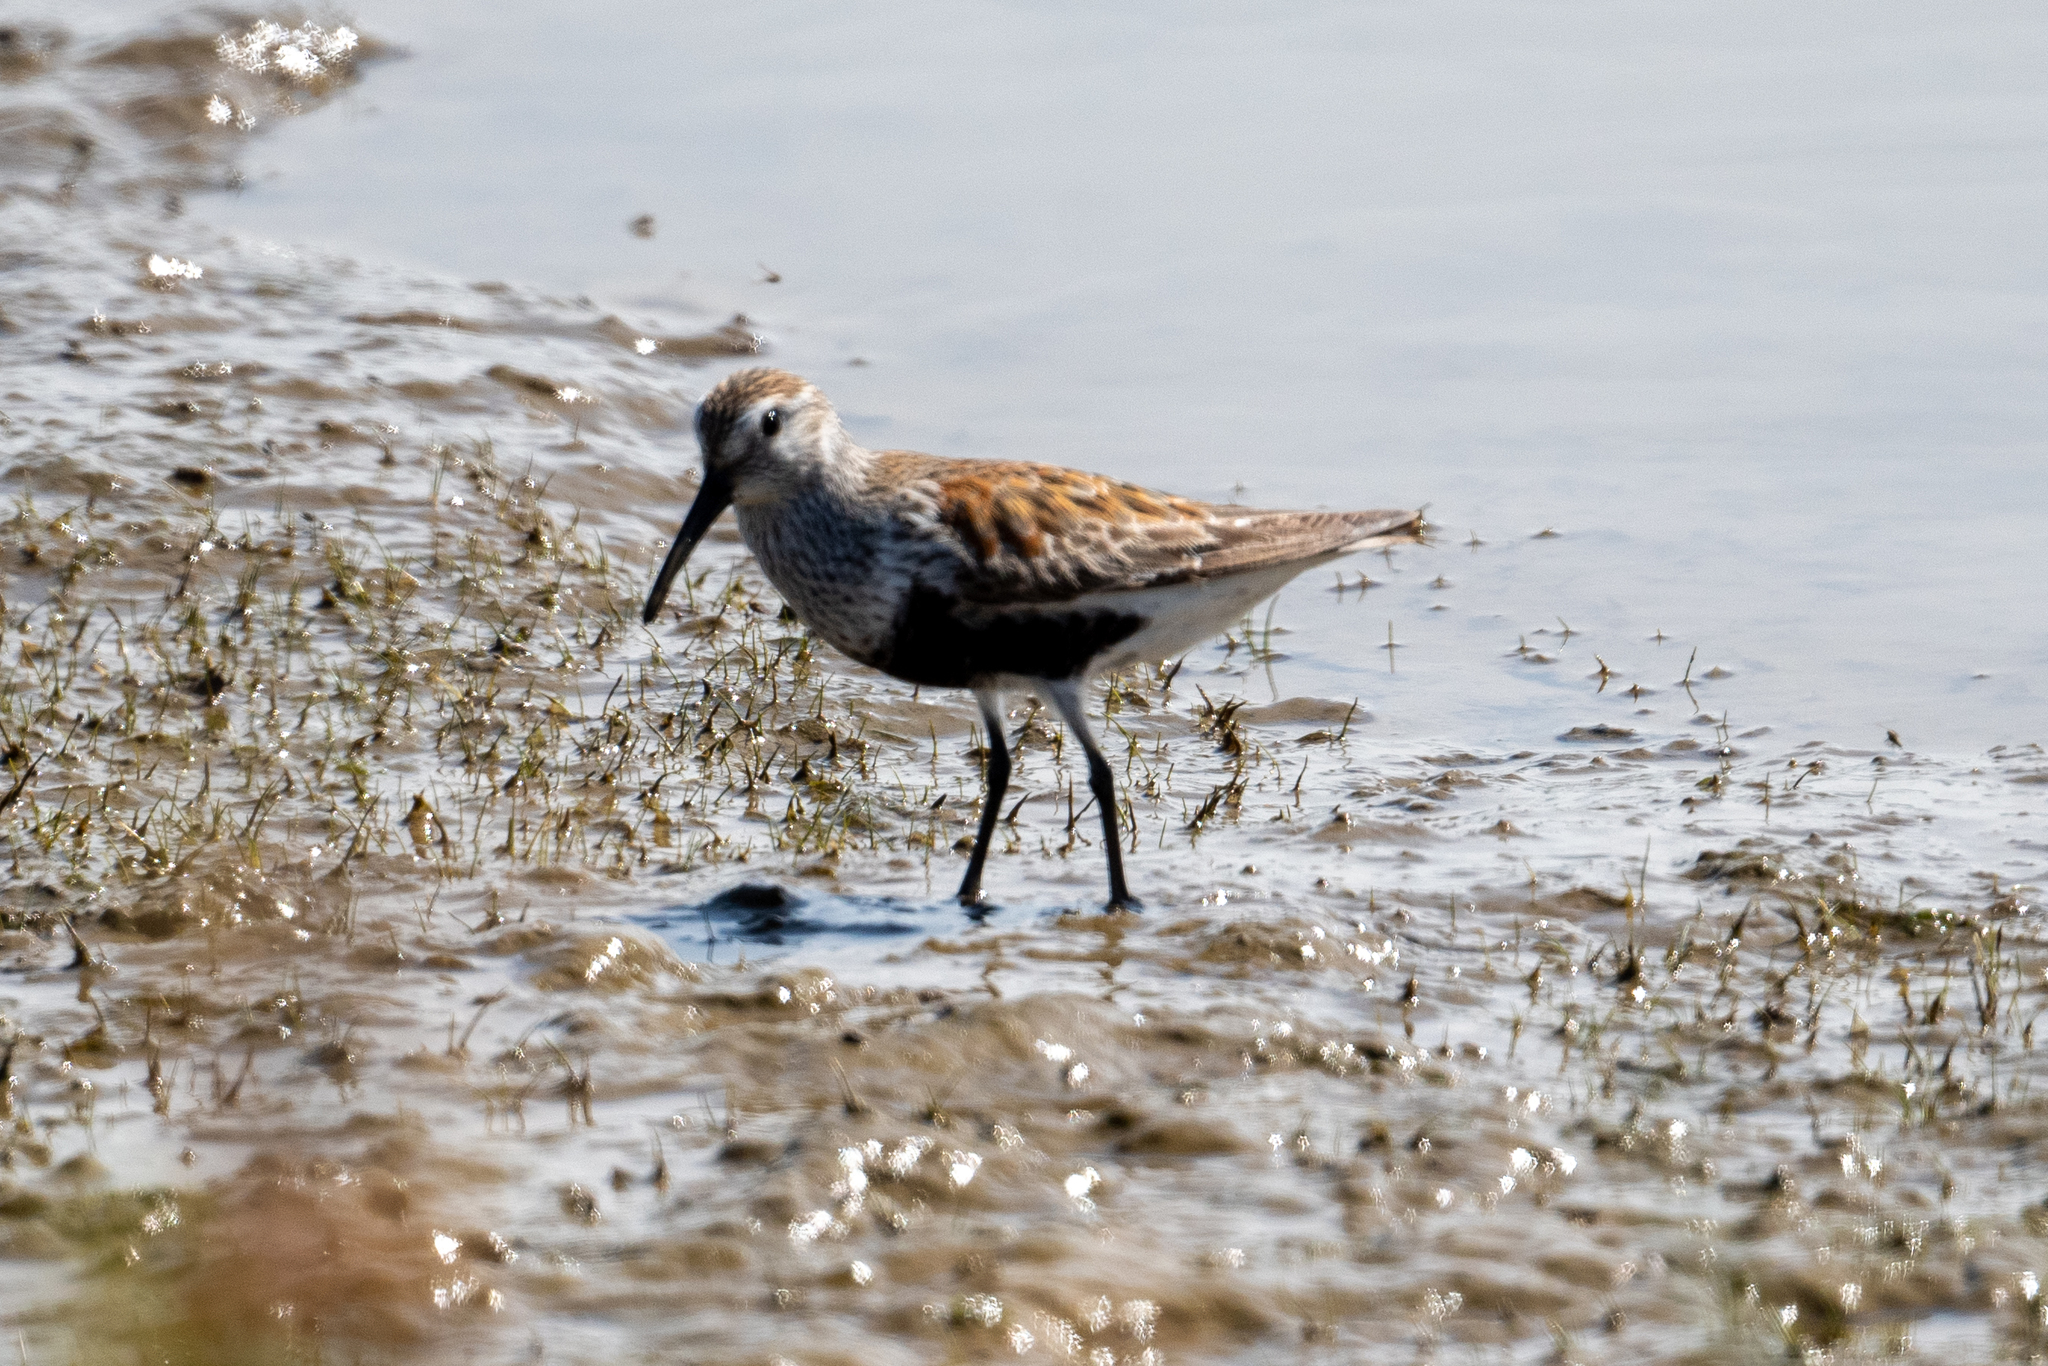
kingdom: Animalia
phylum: Chordata
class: Aves
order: Charadriiformes
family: Scolopacidae
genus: Calidris
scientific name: Calidris alpina
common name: Dunlin
